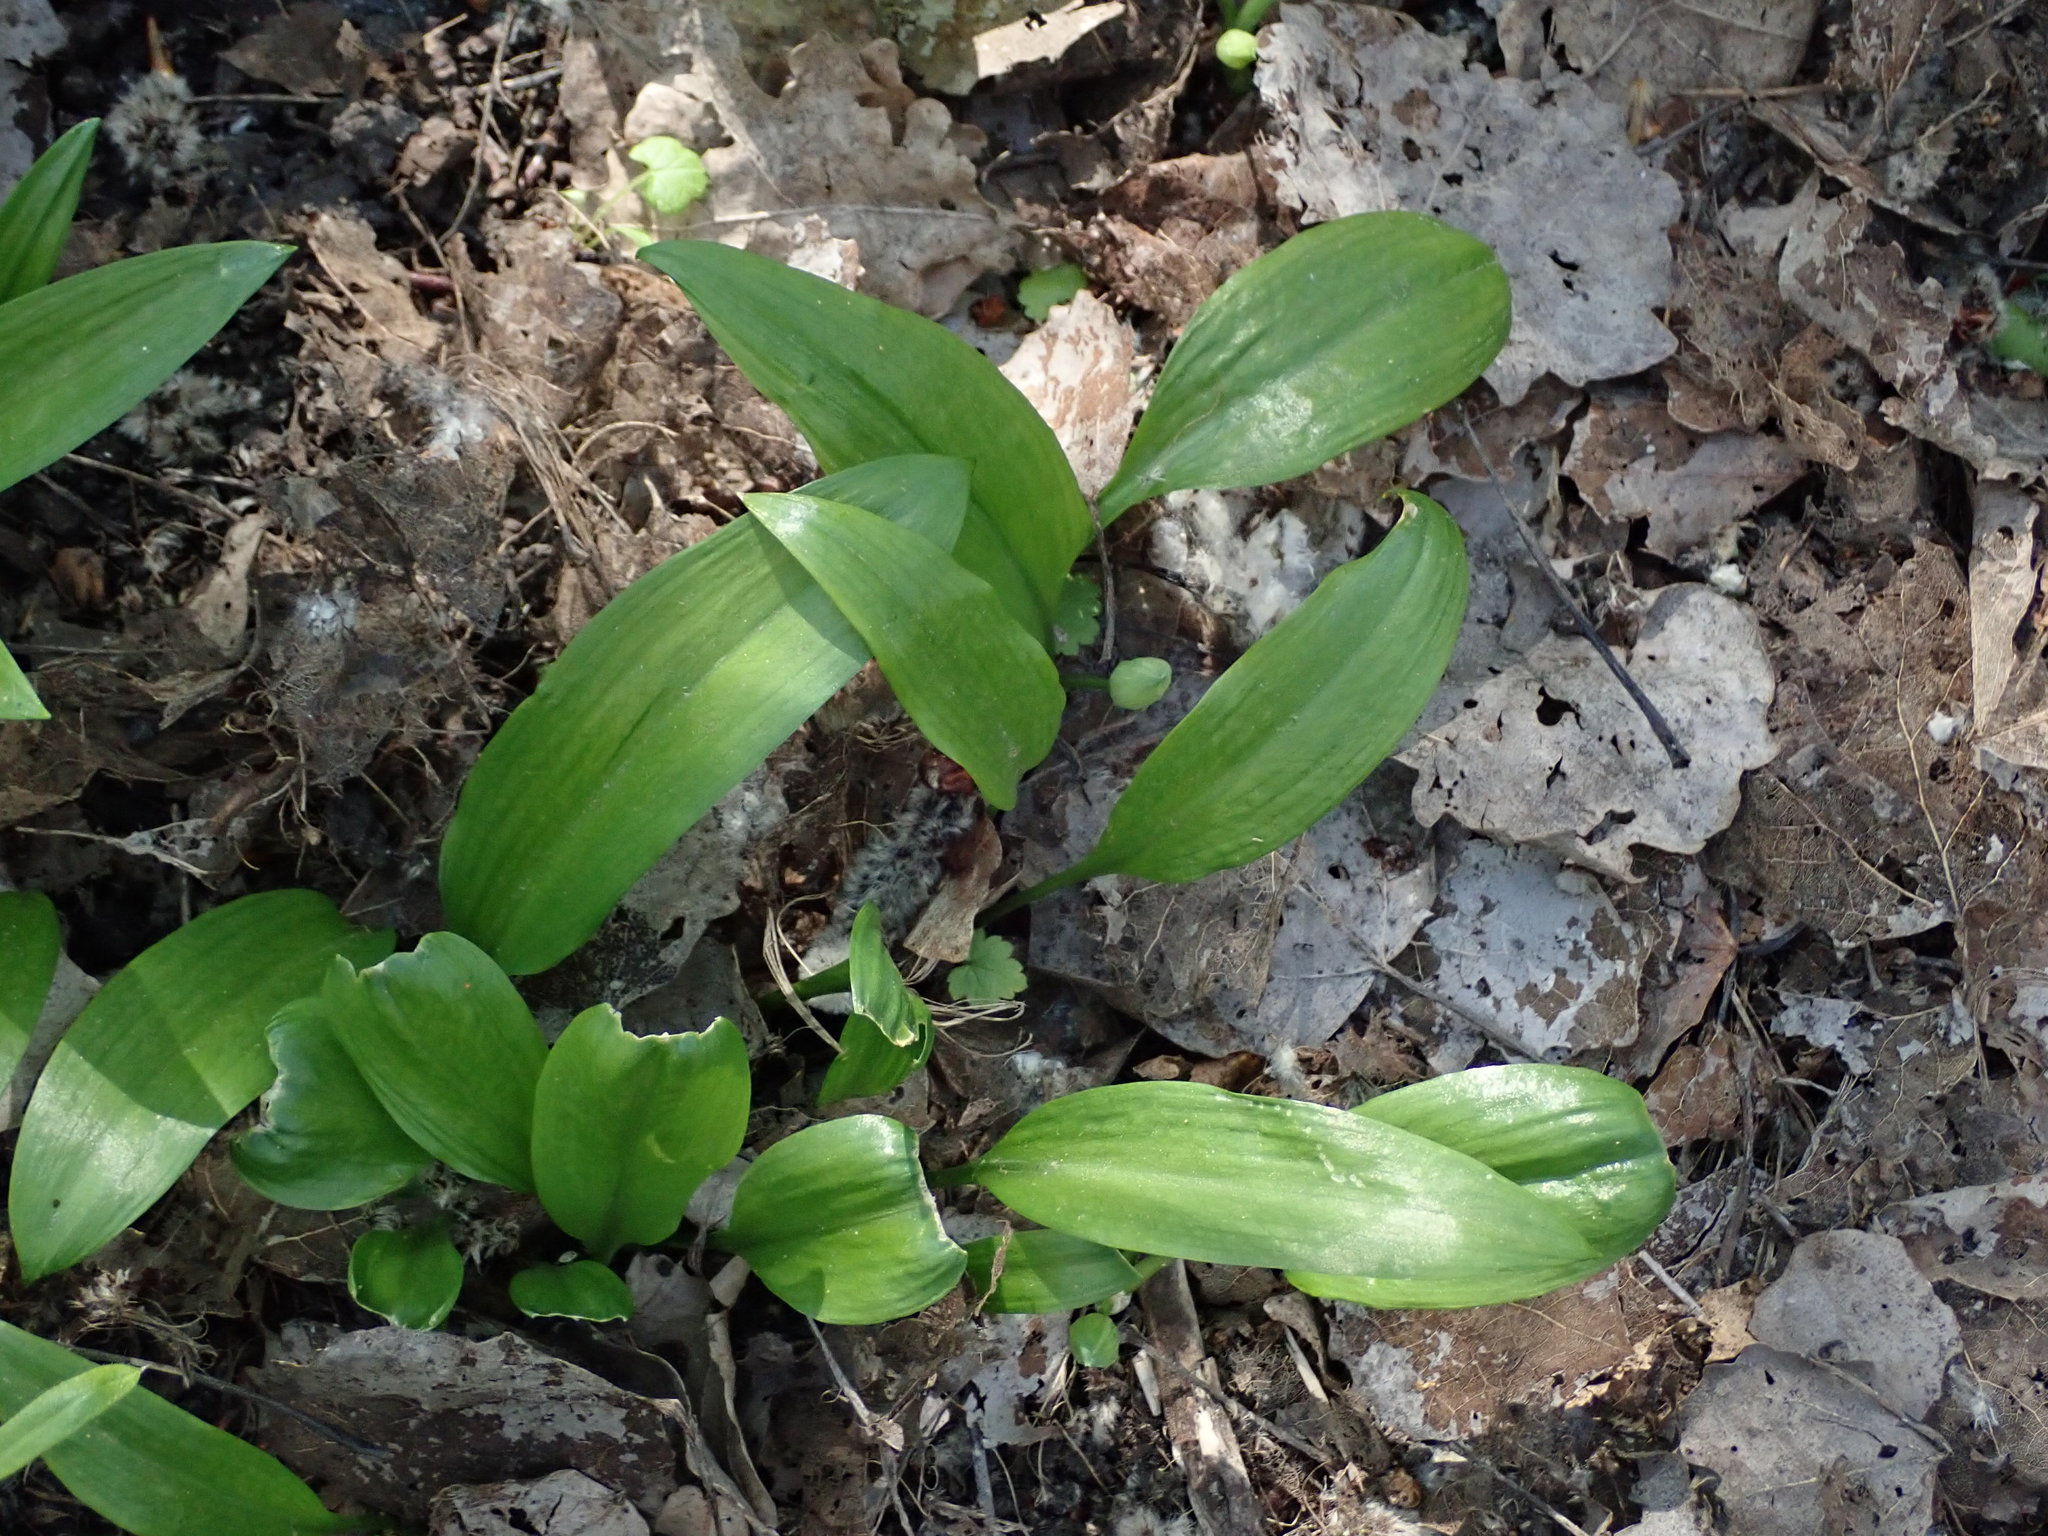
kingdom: Plantae
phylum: Tracheophyta
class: Liliopsida
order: Asparagales
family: Amaryllidaceae
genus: Allium
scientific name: Allium ursinum
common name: Ramsons
